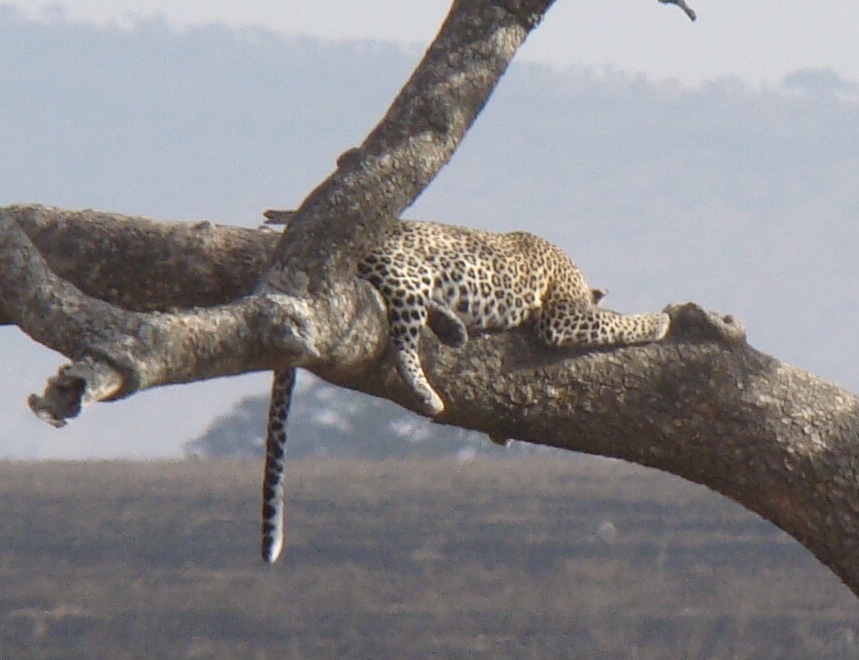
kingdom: Animalia
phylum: Chordata
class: Mammalia
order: Carnivora
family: Felidae
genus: Panthera
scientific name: Panthera pardus
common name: Leopard
